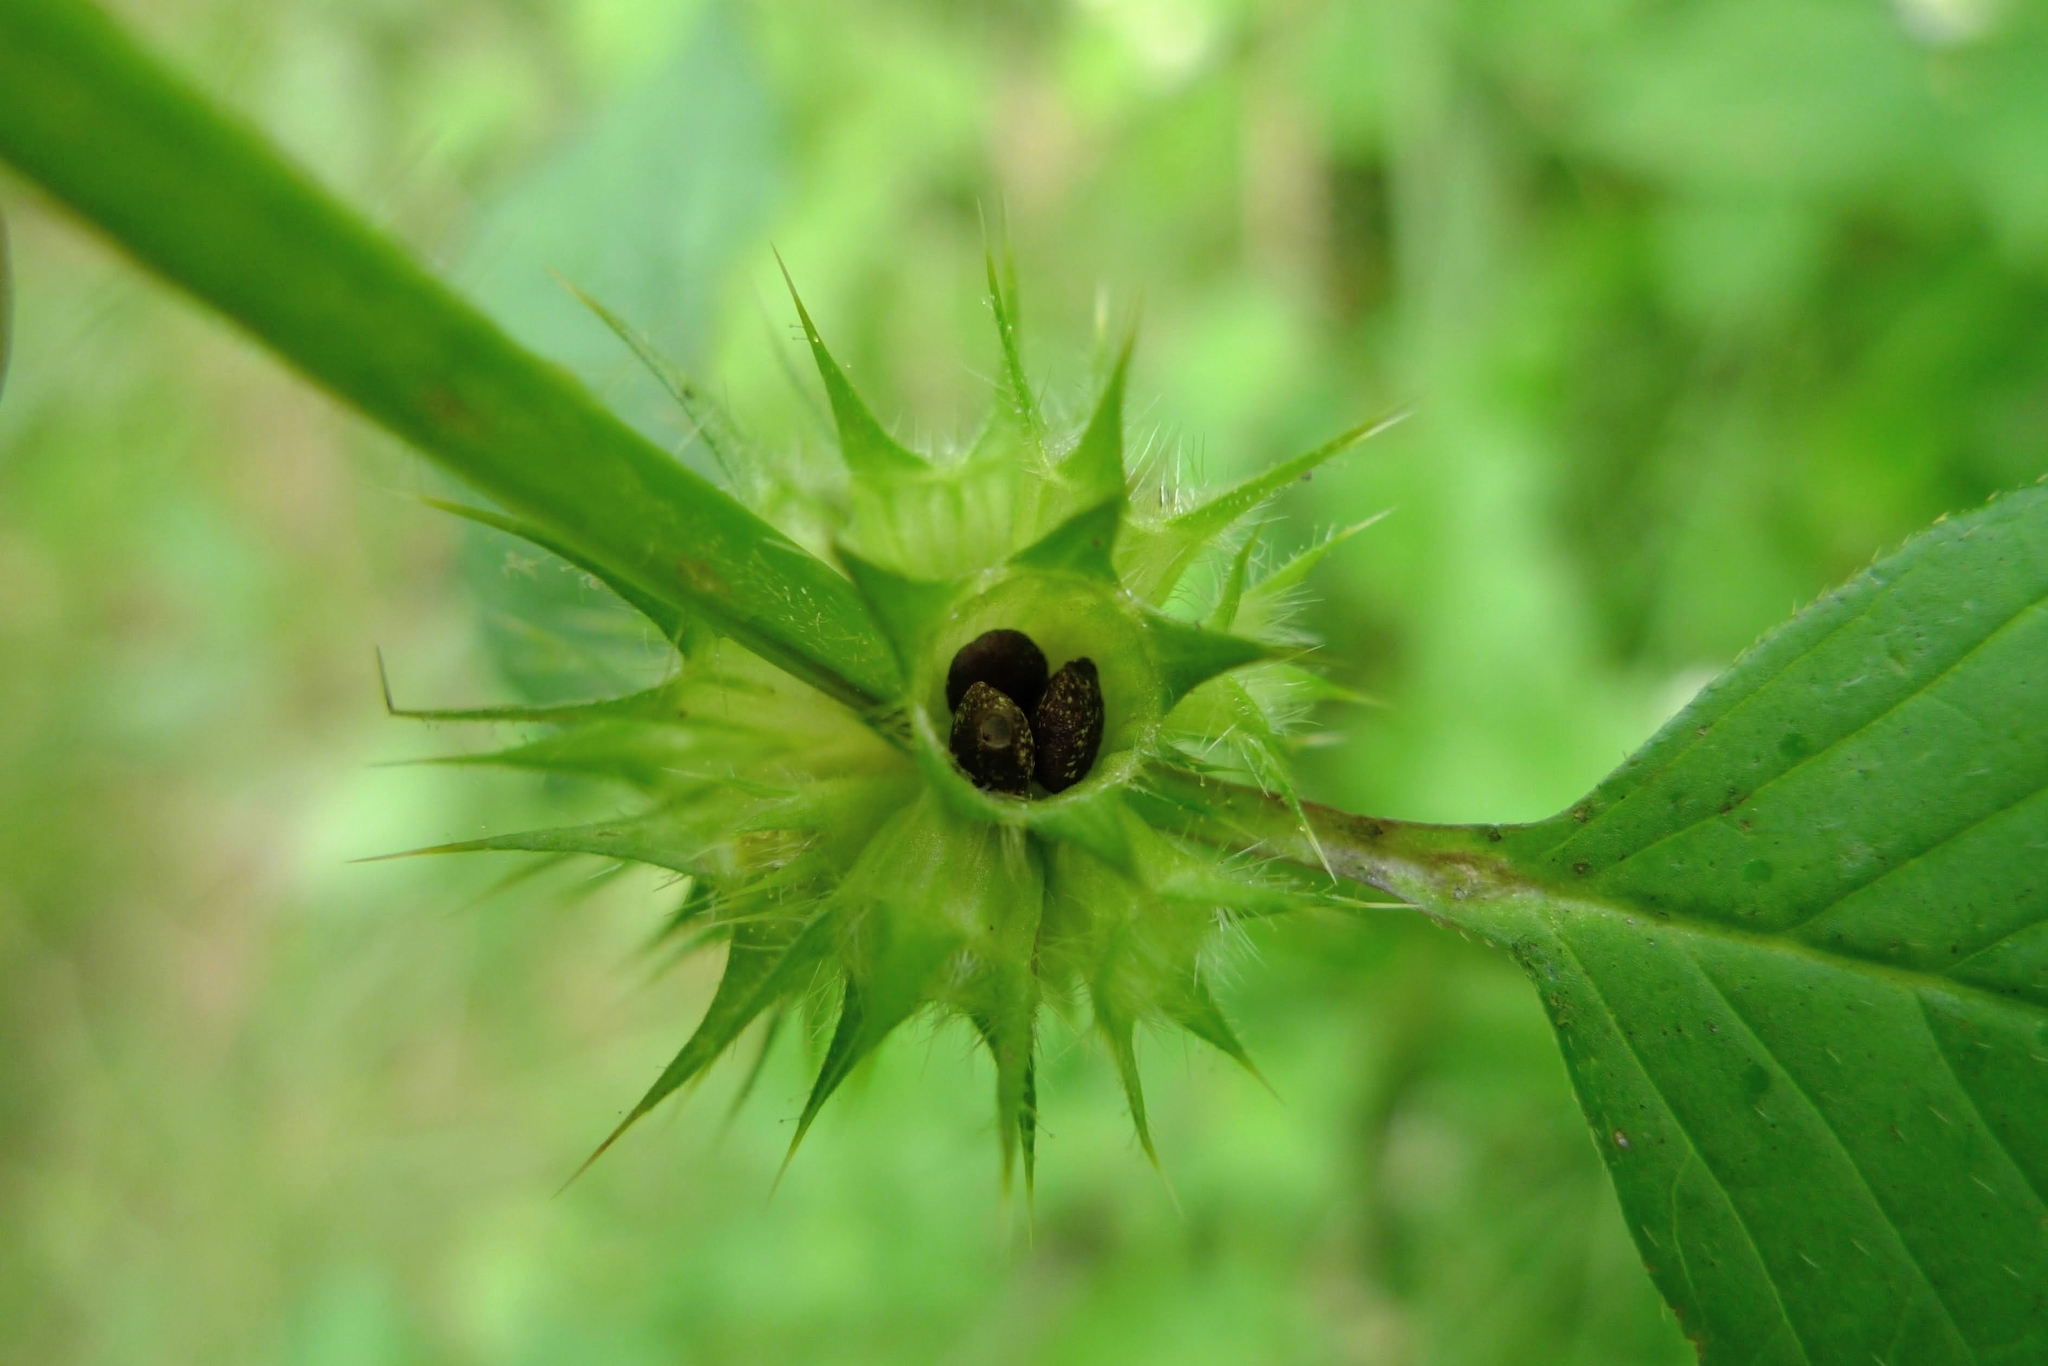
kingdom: Plantae
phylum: Tracheophyta
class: Magnoliopsida
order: Lamiales
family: Lamiaceae
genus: Galeopsis
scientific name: Galeopsis speciosa
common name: Large-flowered hemp-nettle
